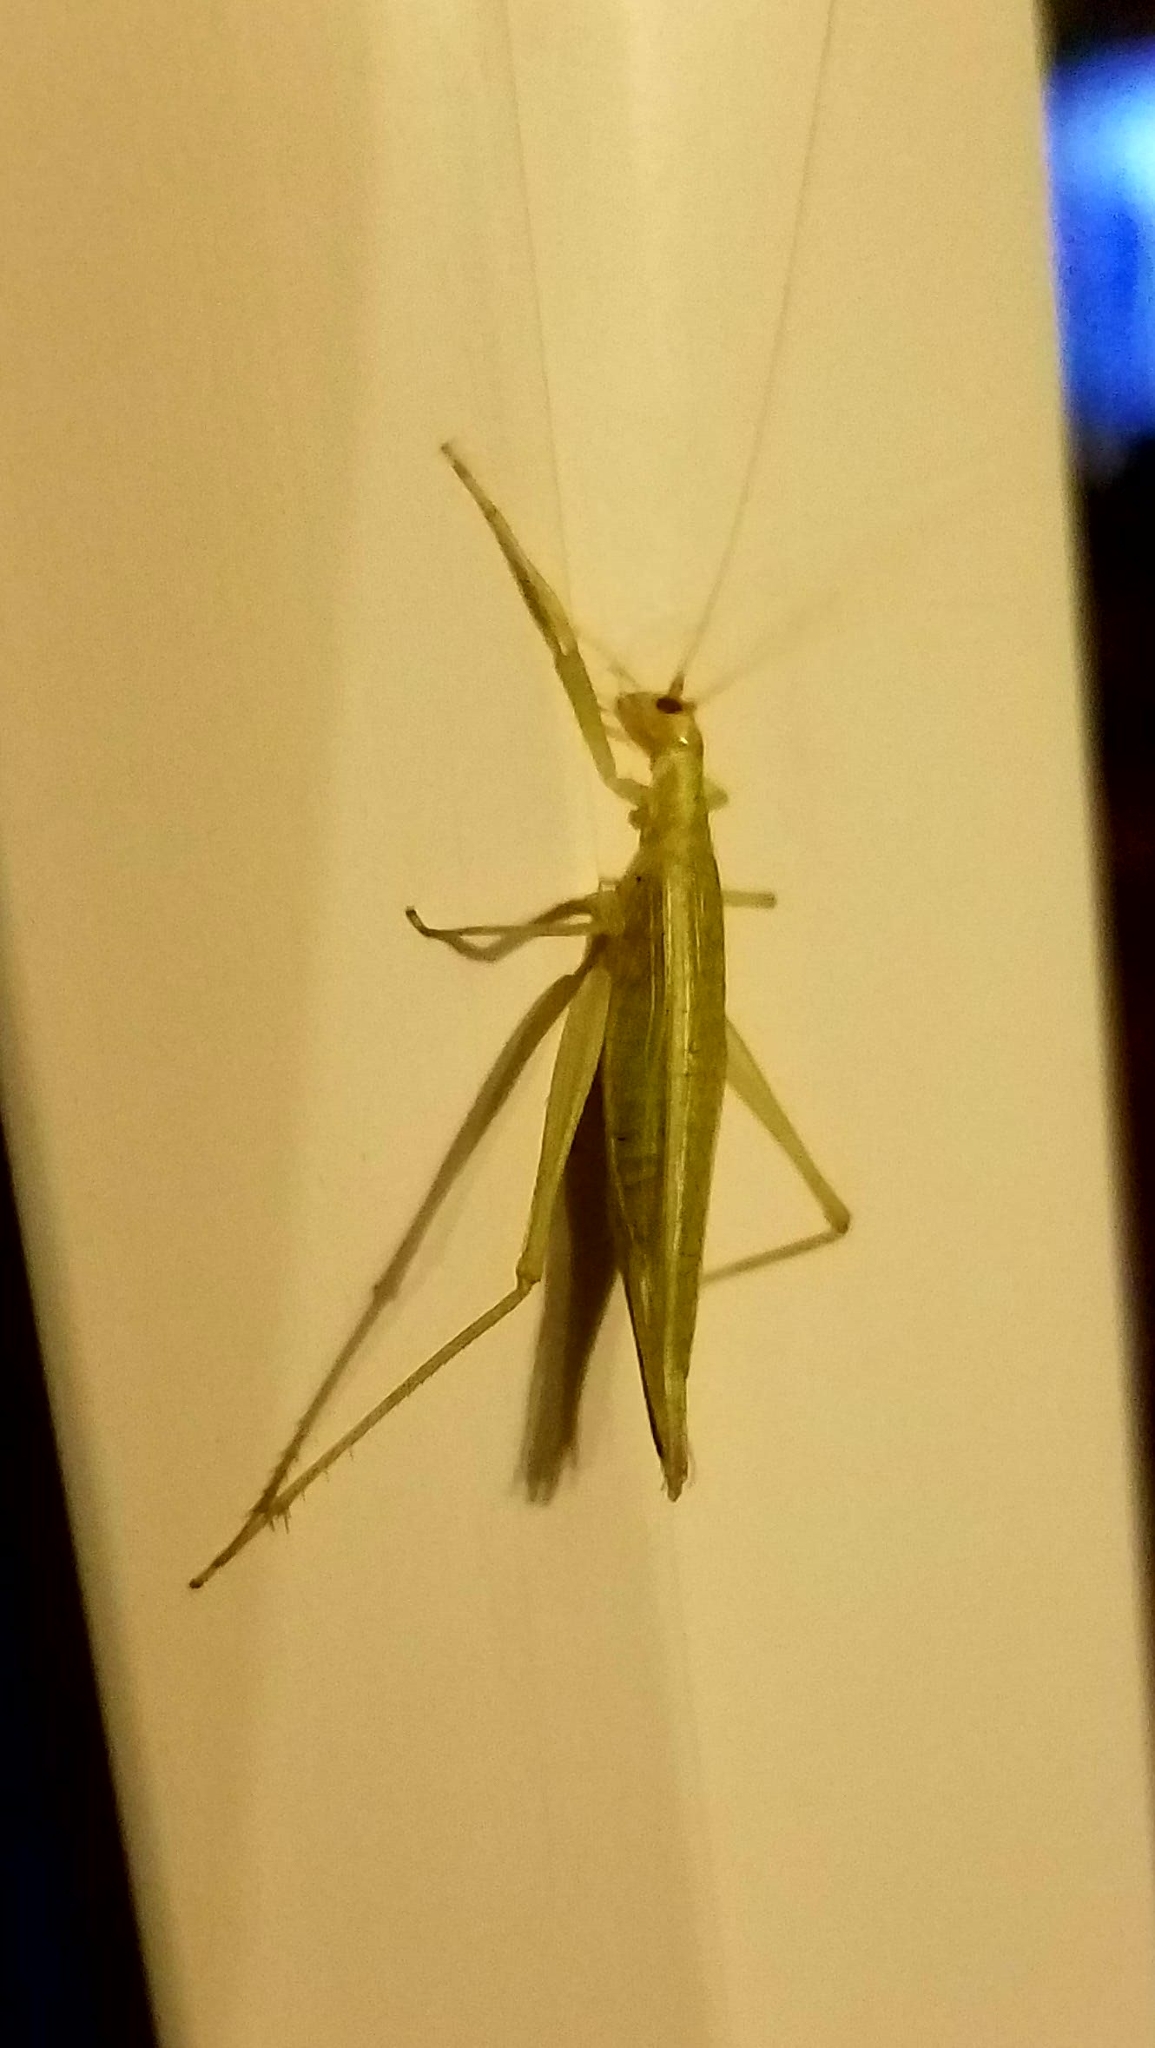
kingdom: Animalia
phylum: Arthropoda
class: Insecta
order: Orthoptera
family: Gryllidae
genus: Oecanthus
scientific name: Oecanthus
